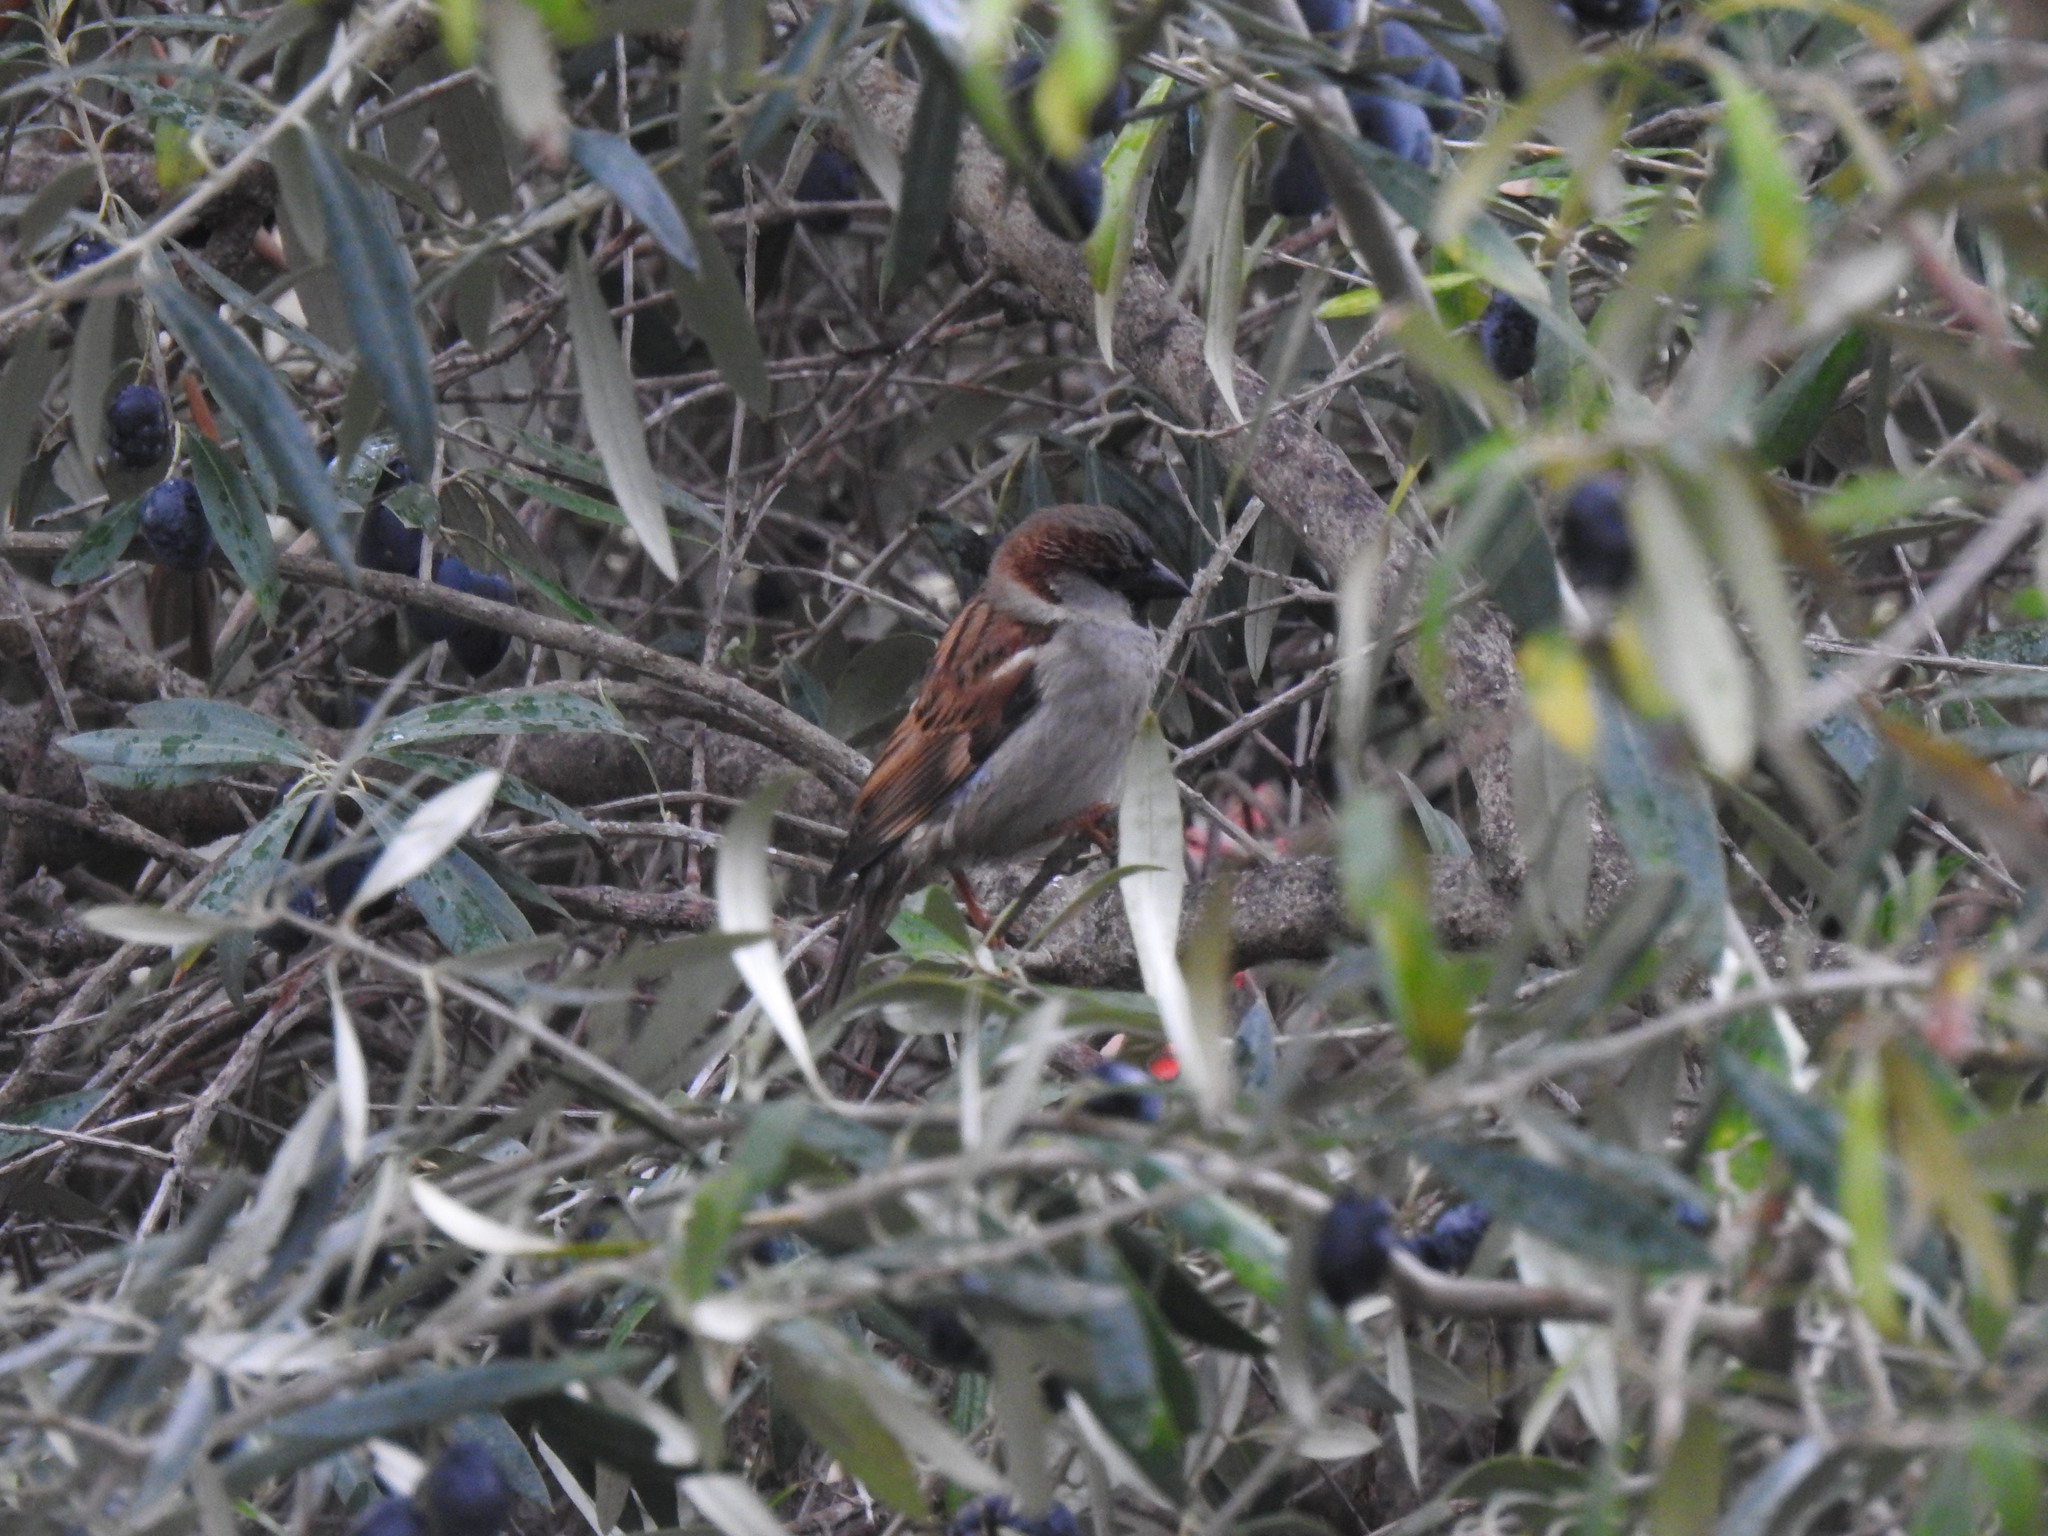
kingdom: Animalia
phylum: Chordata
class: Aves
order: Passeriformes
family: Passeridae
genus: Passer
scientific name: Passer domesticus
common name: House sparrow
